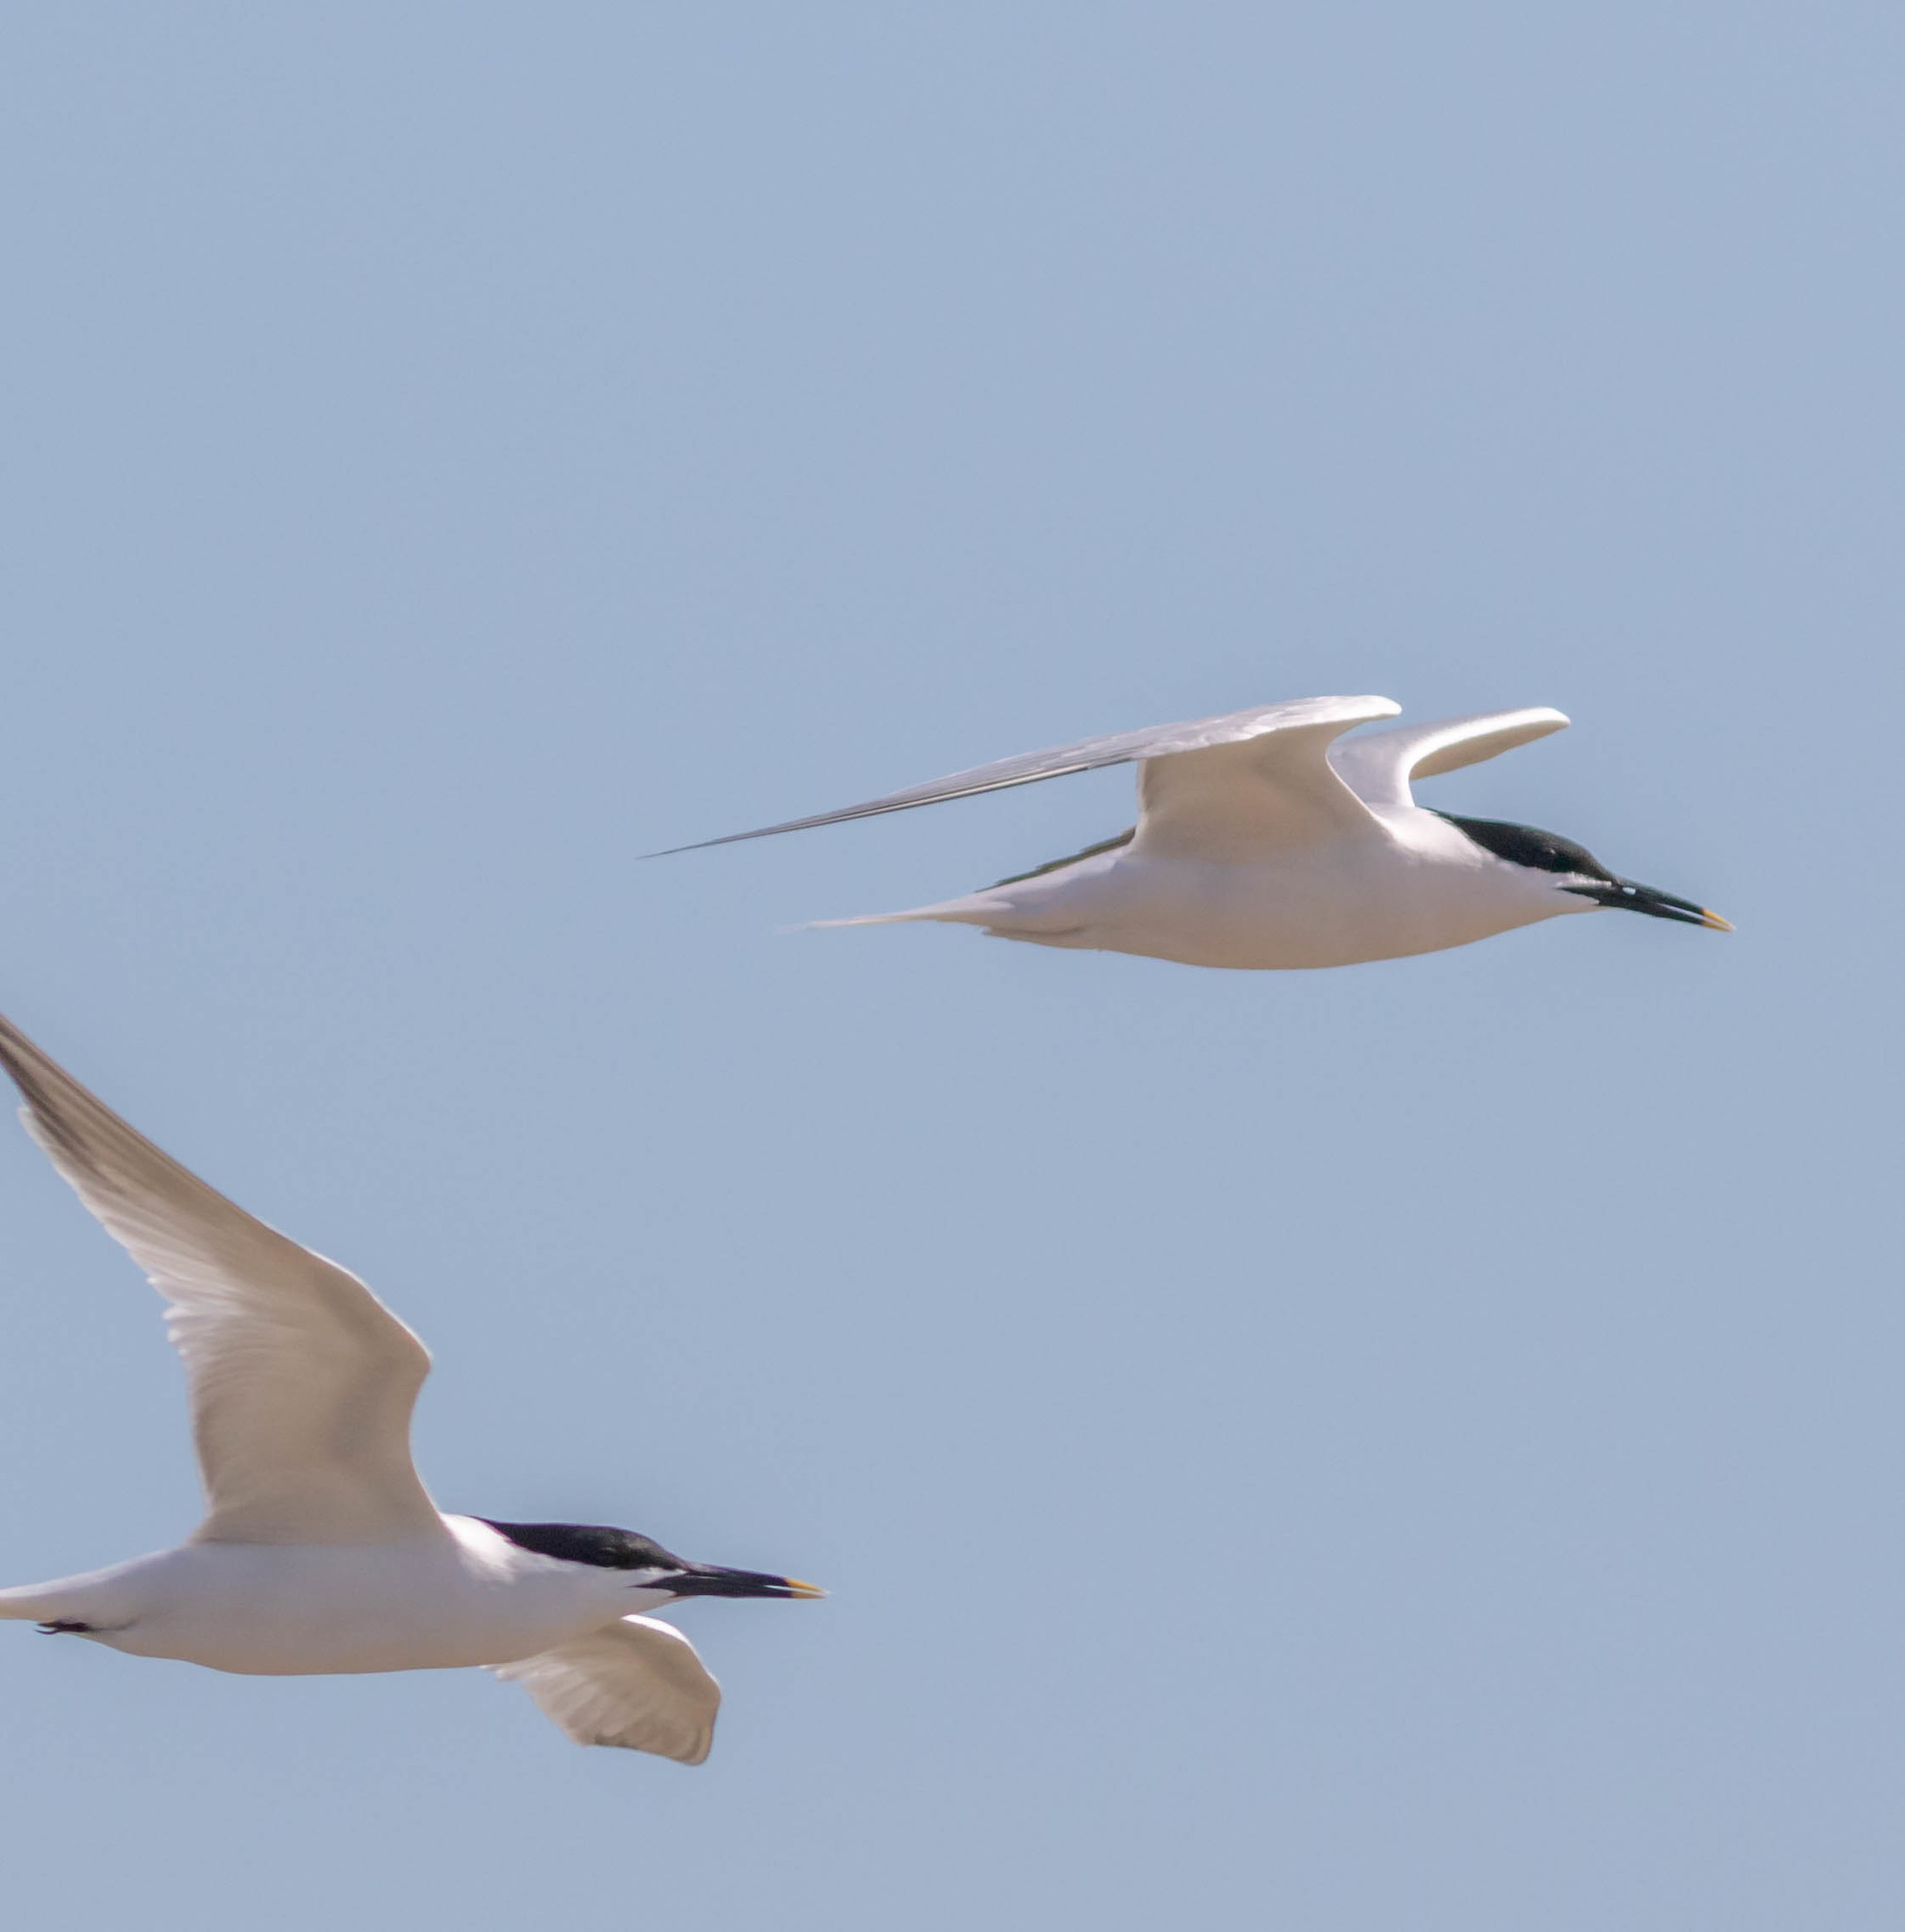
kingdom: Animalia
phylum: Chordata
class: Aves
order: Charadriiformes
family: Laridae
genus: Thalasseus
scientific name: Thalasseus sandvicensis
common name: Sandwich tern
